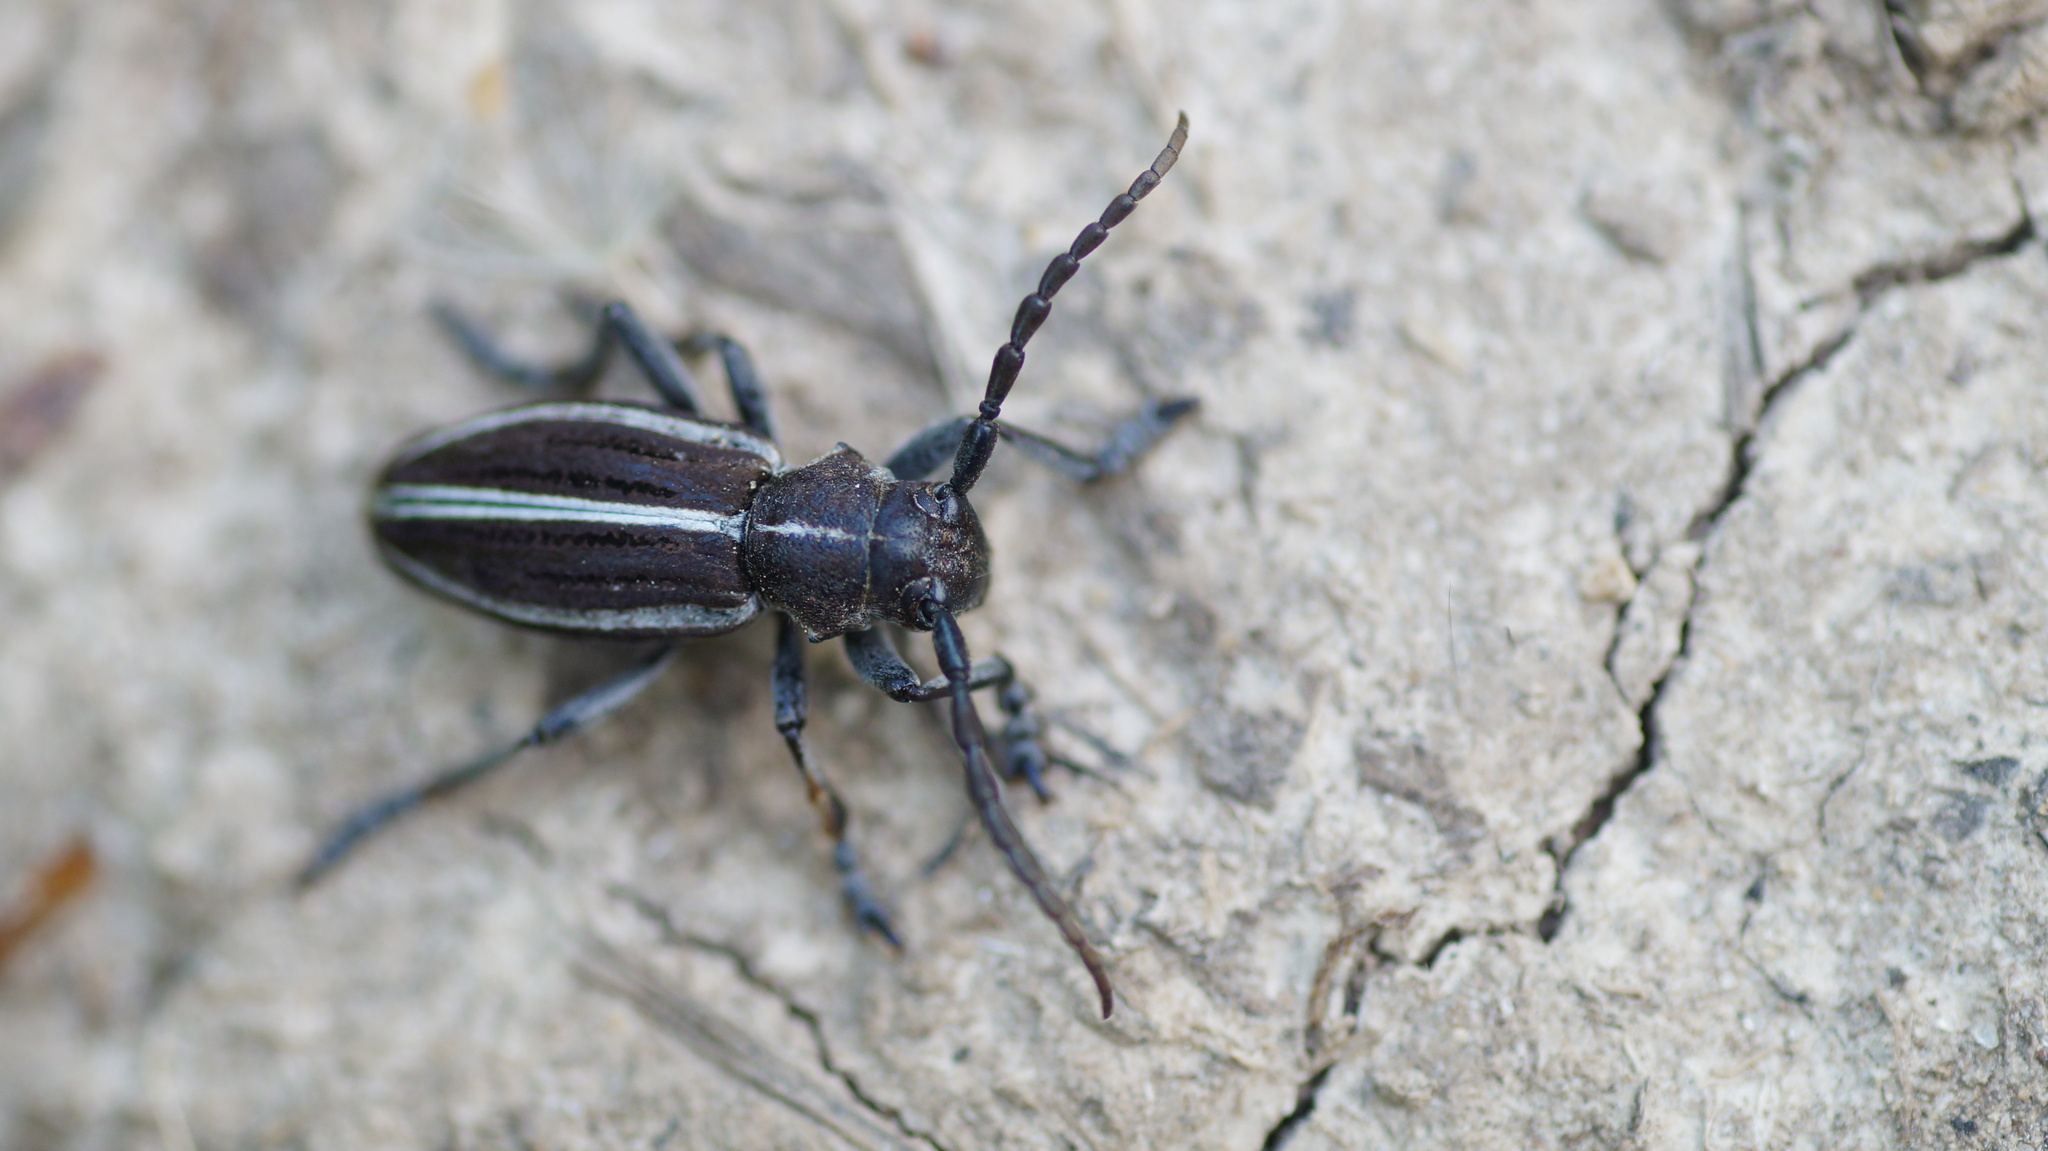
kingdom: Animalia
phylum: Arthropoda
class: Insecta
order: Coleoptera
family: Cerambycidae
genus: Dorcadion
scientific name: Dorcadion holosericeum
